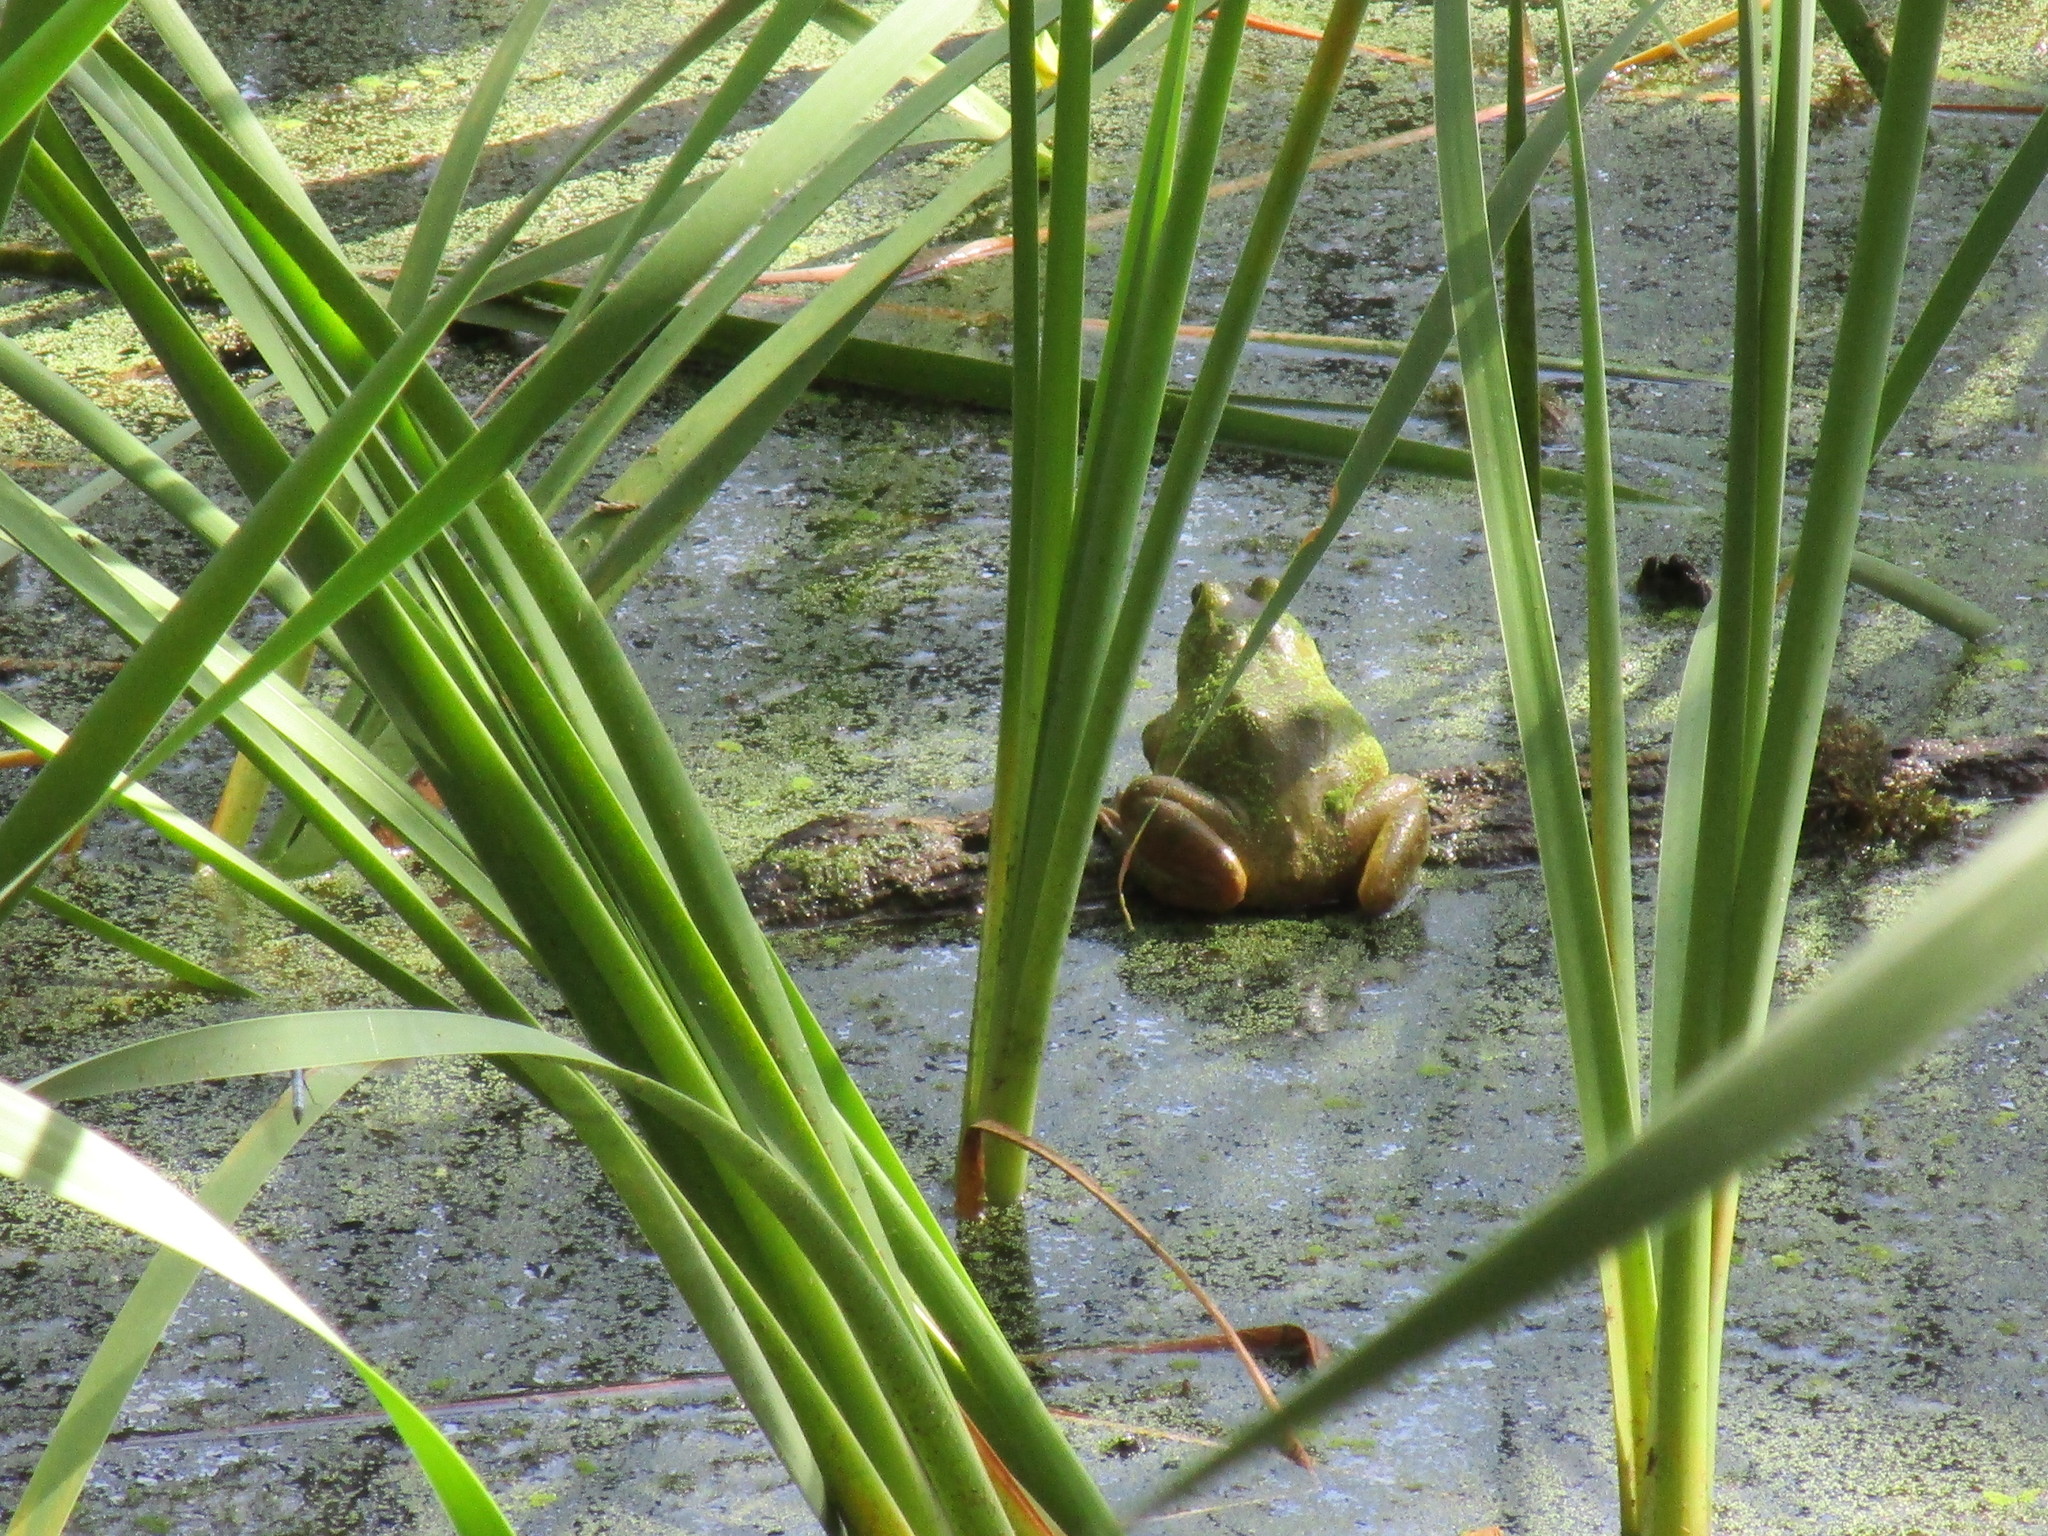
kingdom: Animalia
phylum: Chordata
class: Amphibia
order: Anura
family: Ranidae
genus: Lithobates
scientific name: Lithobates catesbeianus
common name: American bullfrog
